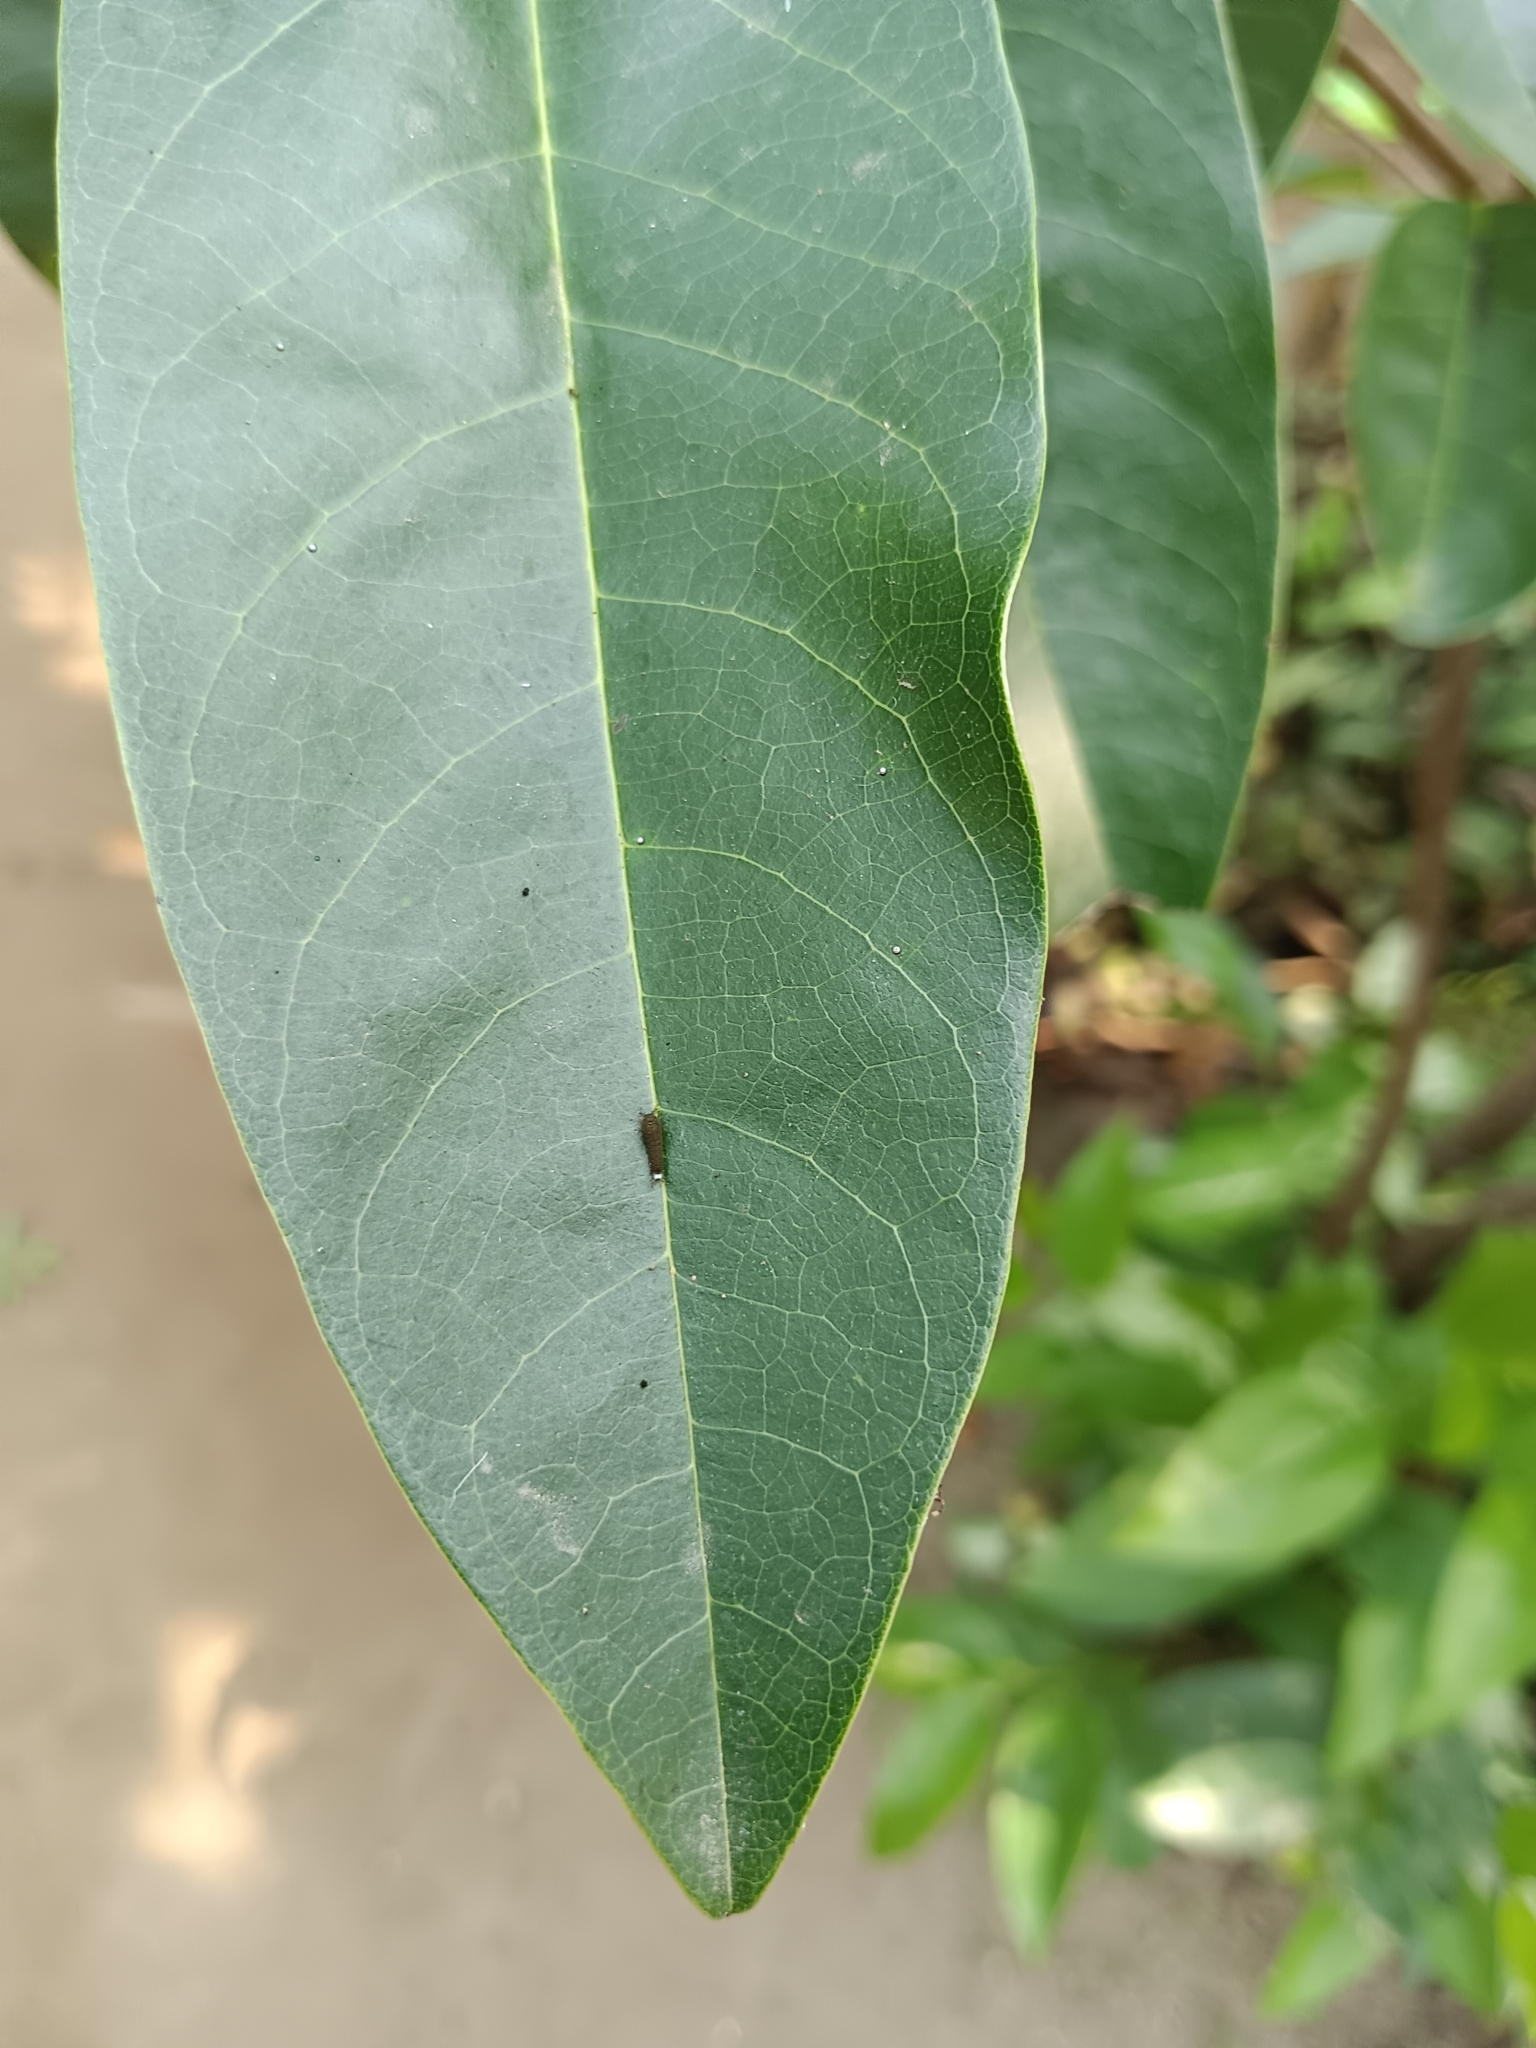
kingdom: Animalia
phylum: Arthropoda
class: Insecta
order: Lepidoptera
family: Papilionidae
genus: Graphium
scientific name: Graphium doson
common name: Common jay
